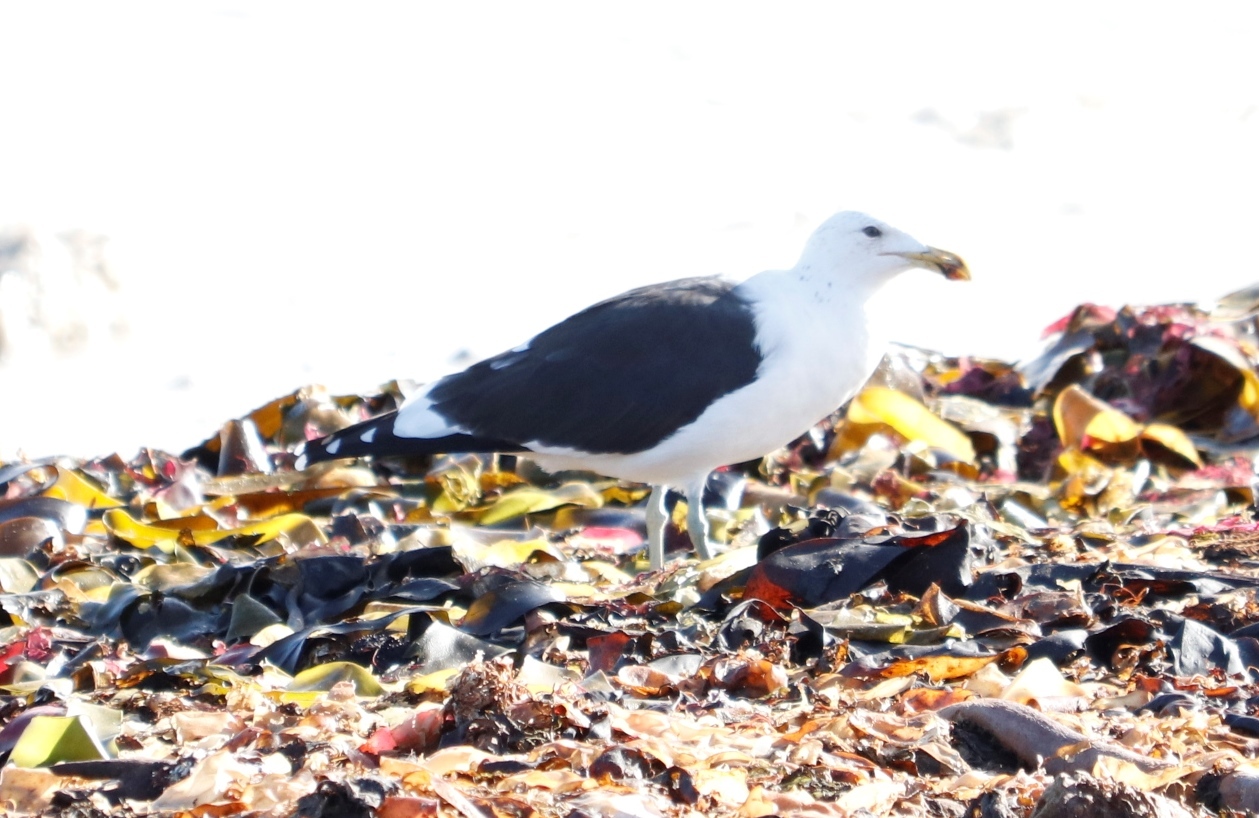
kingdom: Animalia
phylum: Chordata
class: Aves
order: Charadriiformes
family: Laridae
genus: Larus
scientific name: Larus dominicanus
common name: Kelp gull
